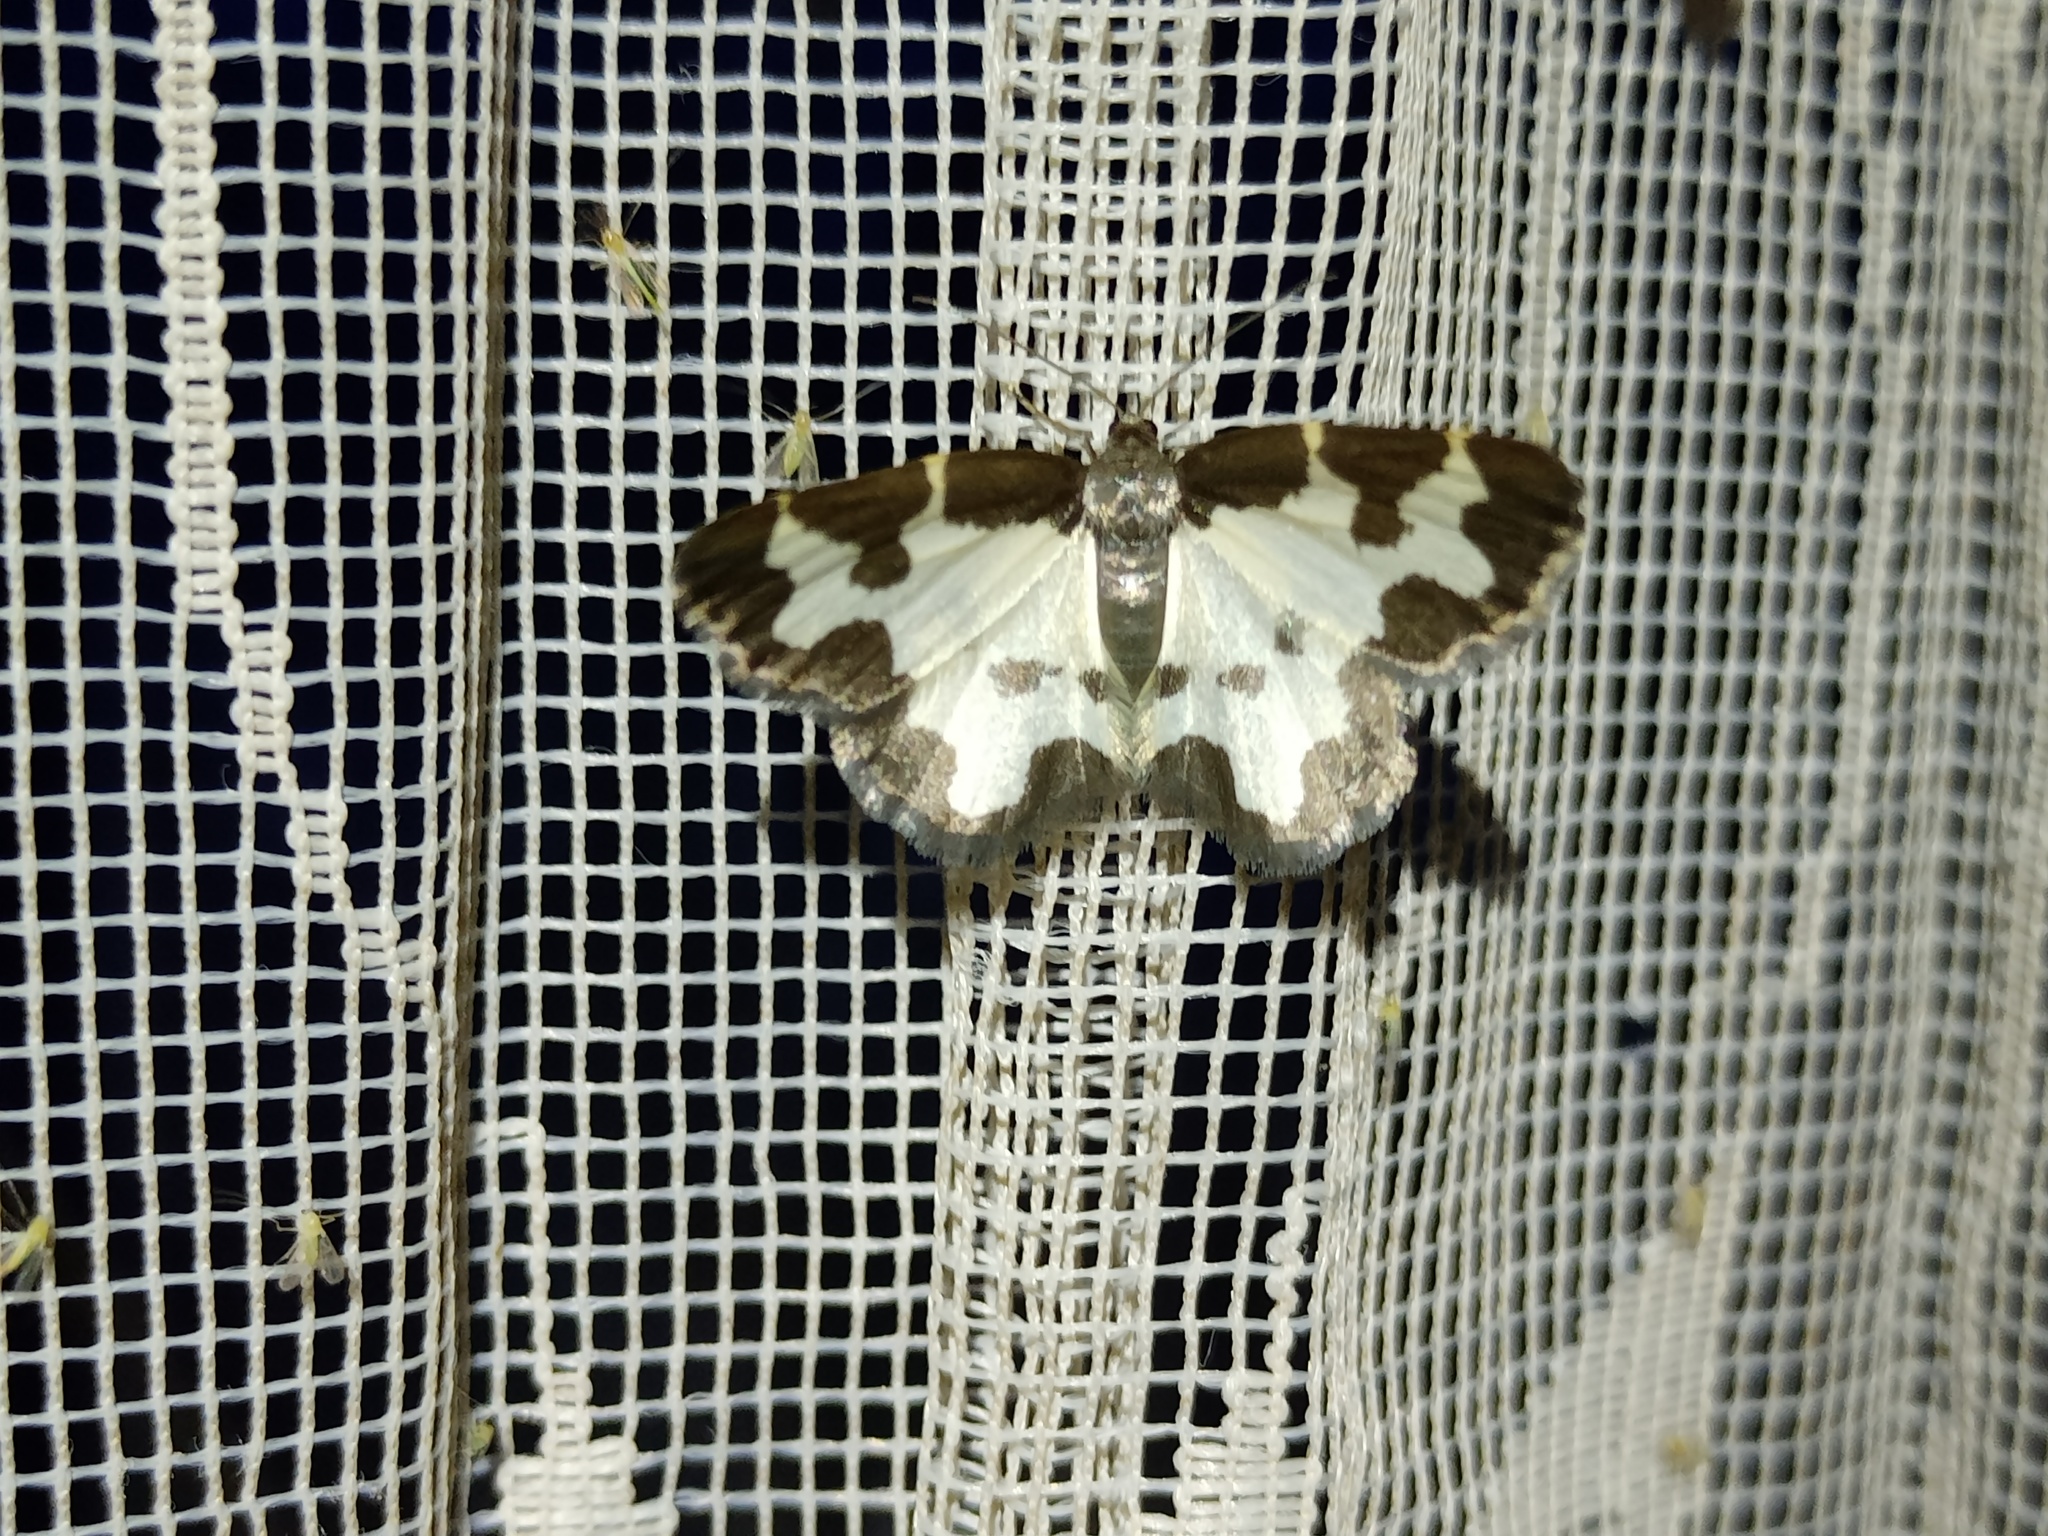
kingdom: Animalia
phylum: Arthropoda
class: Insecta
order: Lepidoptera
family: Geometridae
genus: Lomaspilis
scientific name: Lomaspilis marginata
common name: Clouded border
